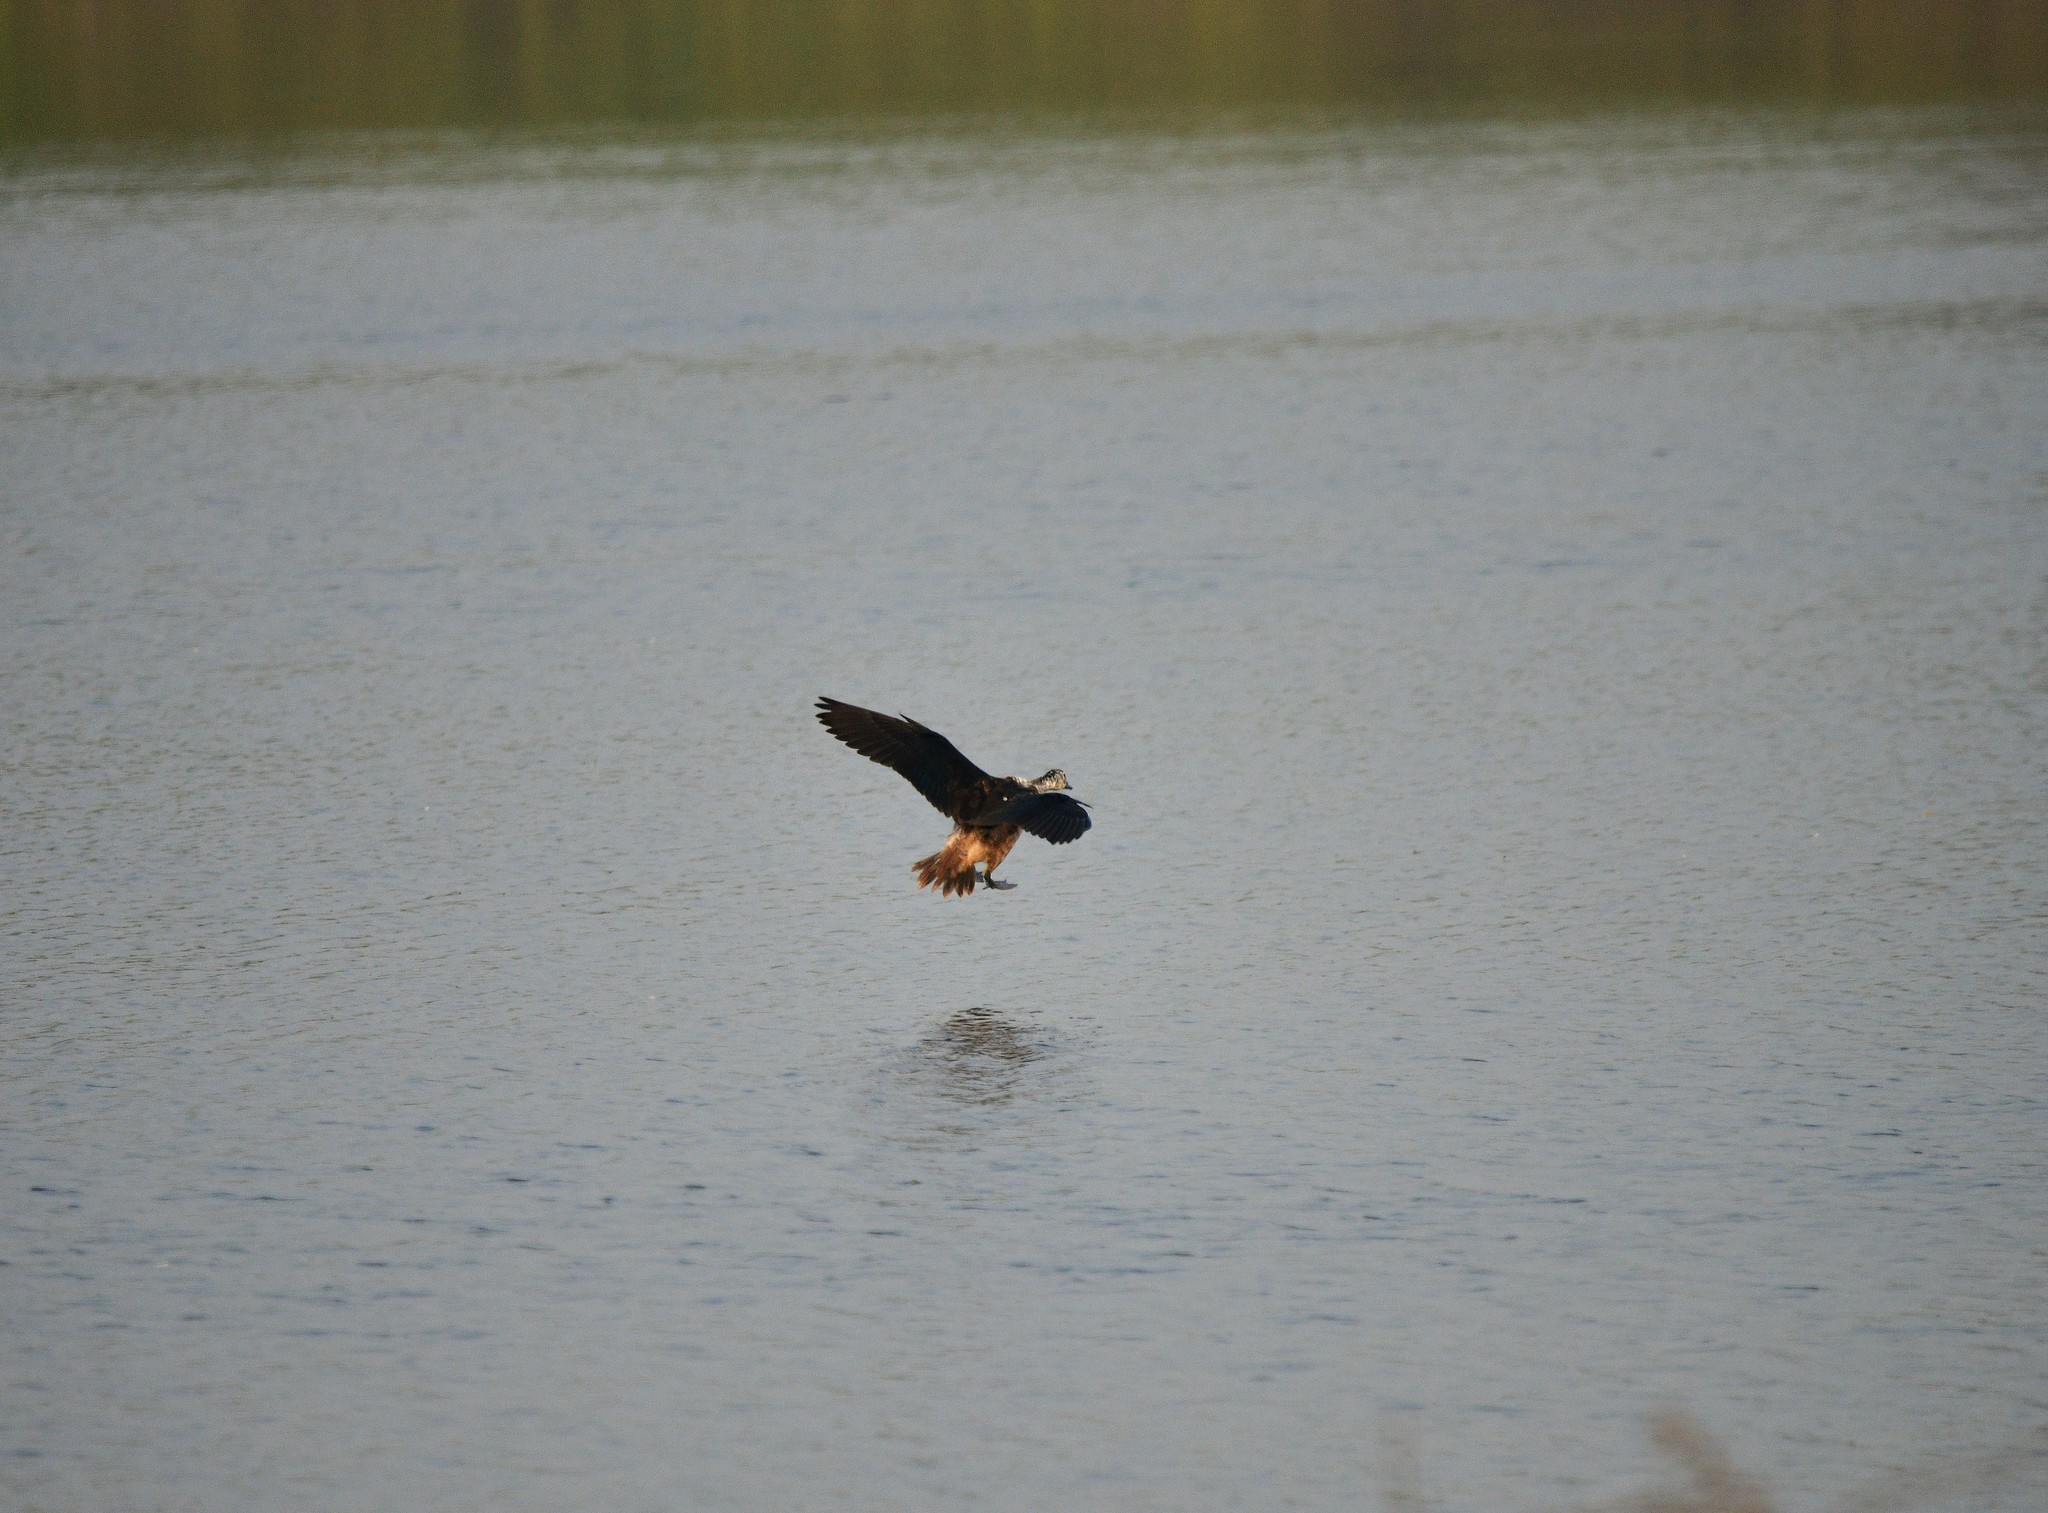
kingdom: Animalia
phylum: Chordata
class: Aves
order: Anseriformes
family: Anatidae
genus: Sarkidiornis
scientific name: Sarkidiornis melanotos
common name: Comb duck
